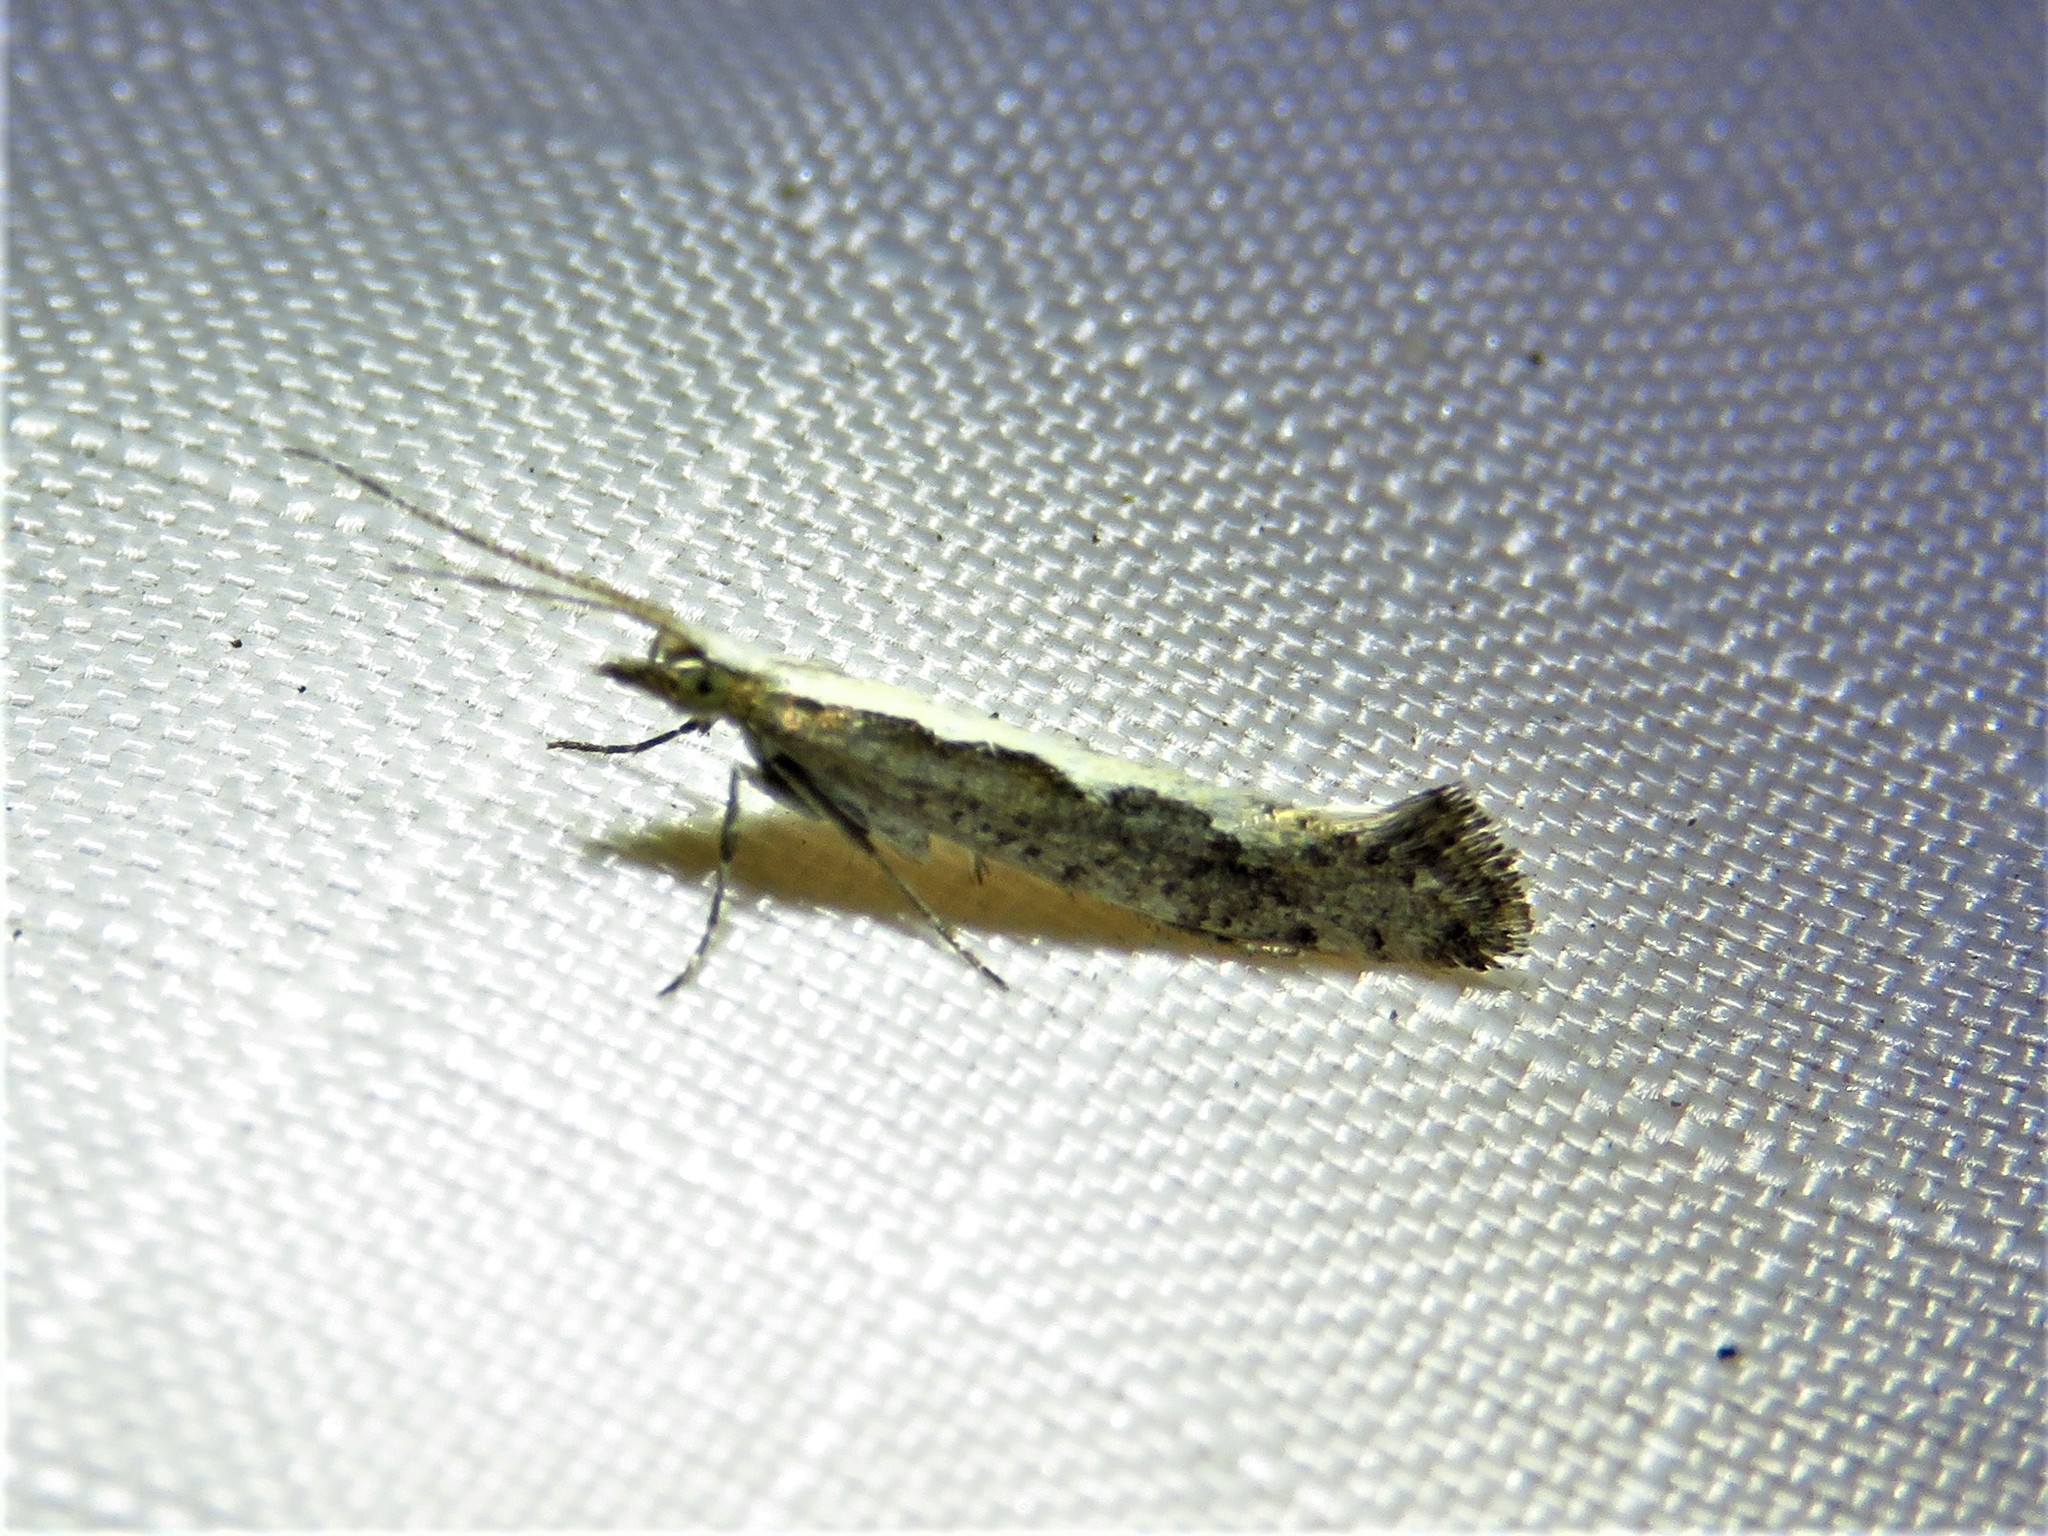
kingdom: Animalia
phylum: Arthropoda
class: Insecta
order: Lepidoptera
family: Plutellidae
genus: Plutella
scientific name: Plutella xylostella
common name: Diamond-back moth
